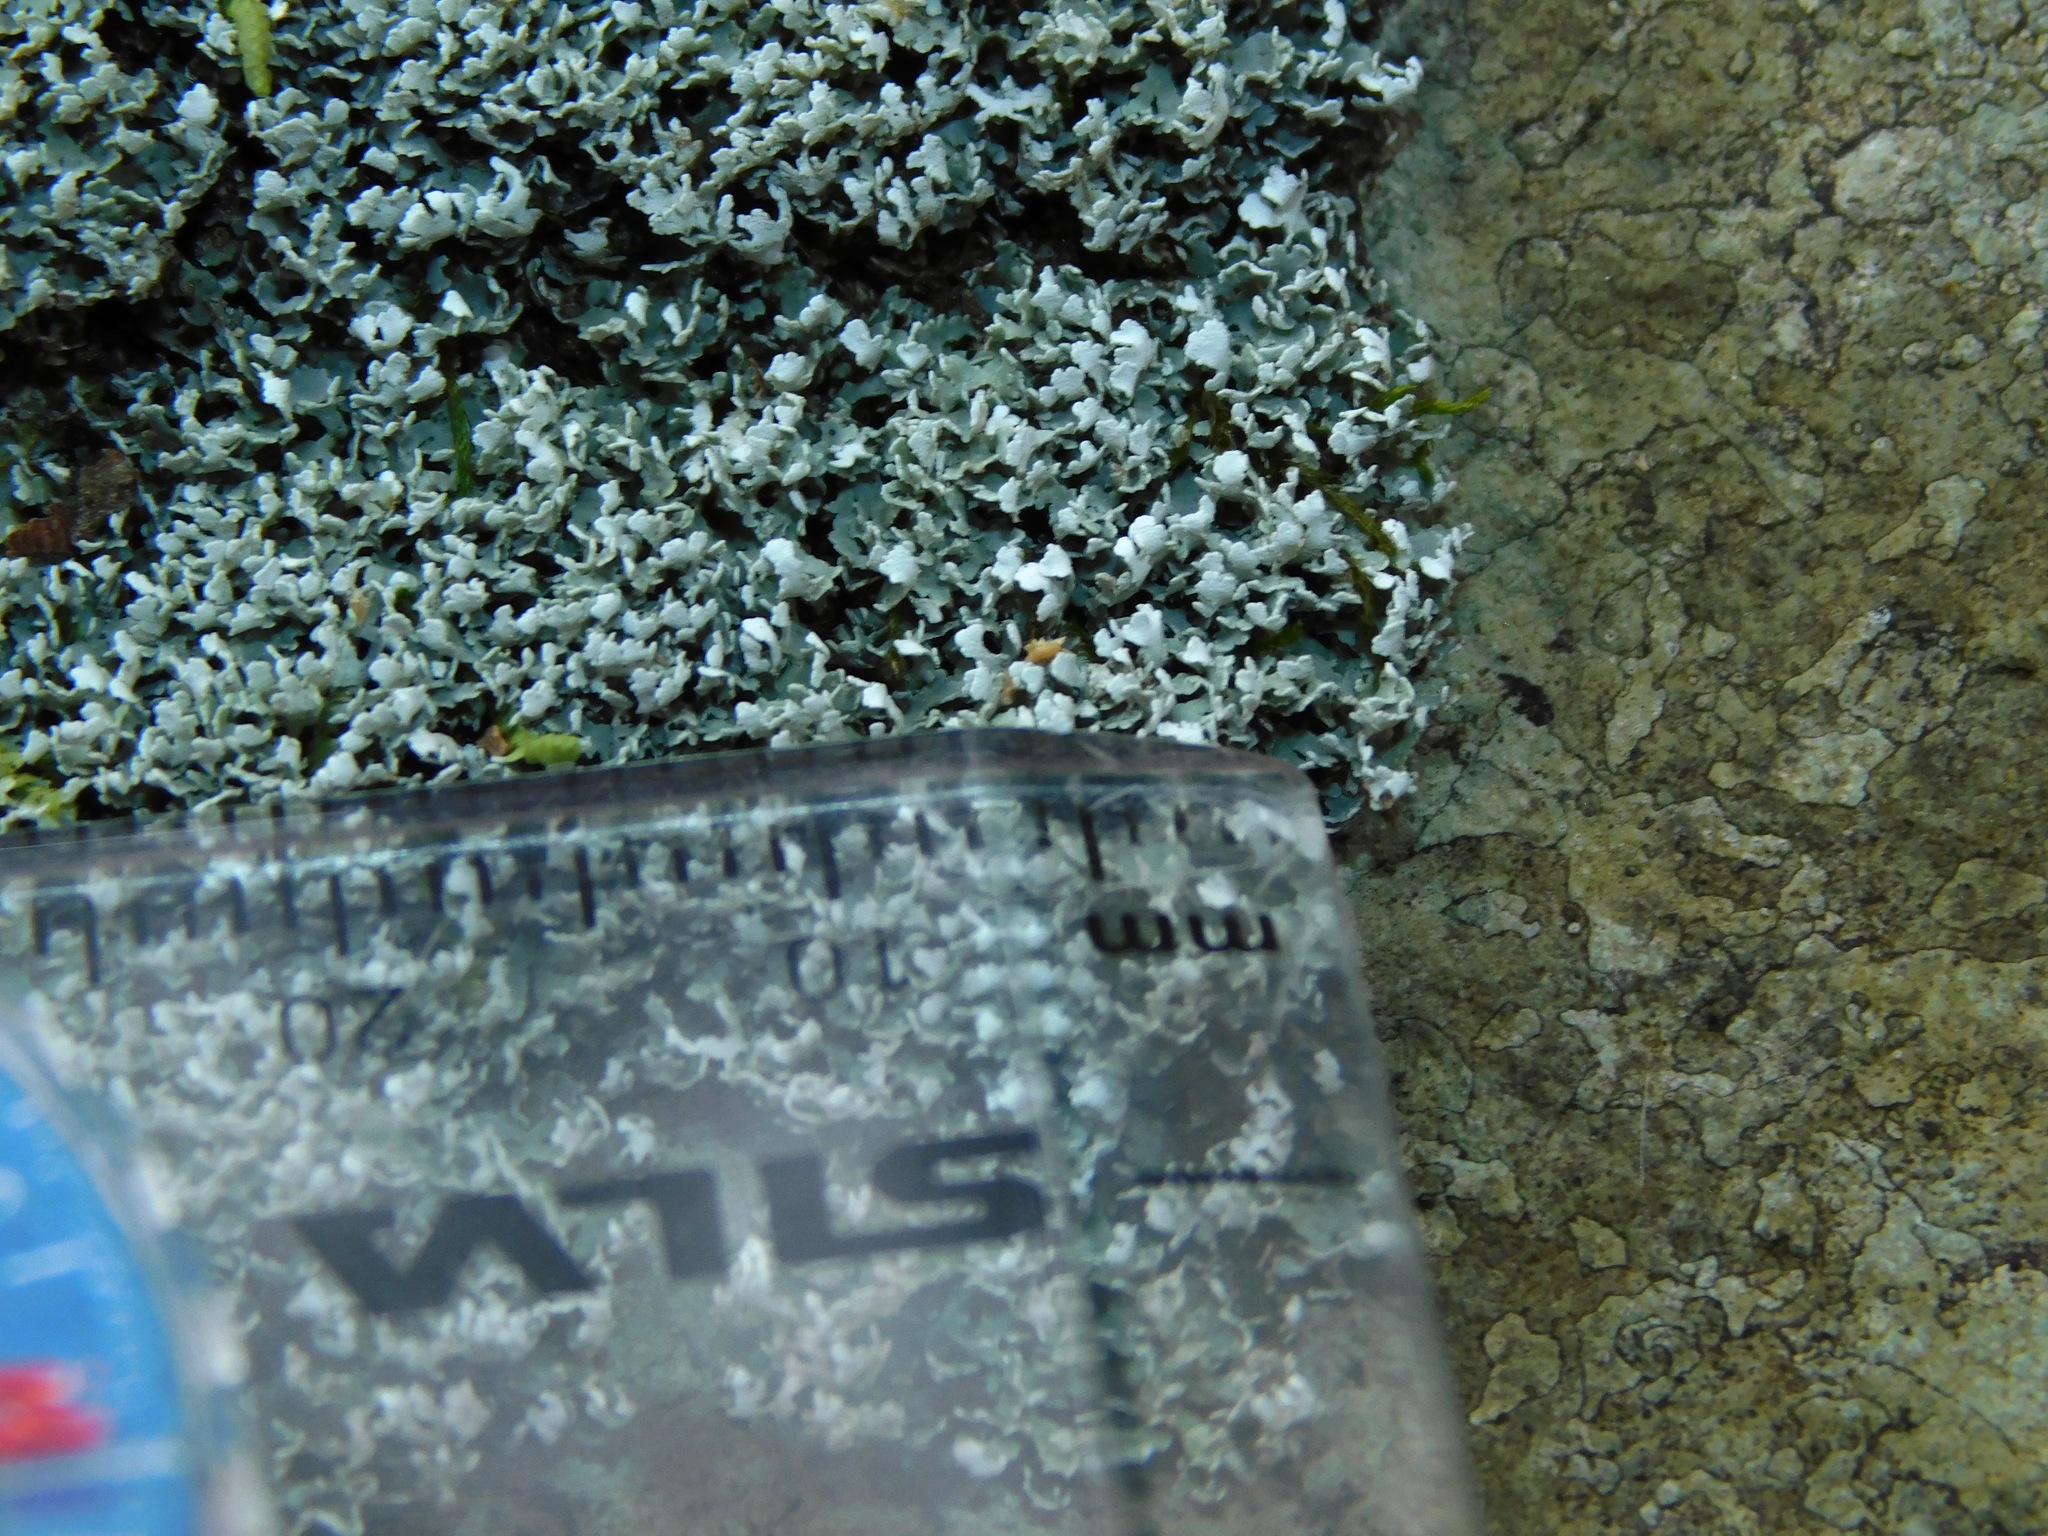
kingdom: Fungi
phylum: Ascomycota
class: Lecanoromycetes
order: Lecanorales
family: Cladoniaceae
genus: Cladonia
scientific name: Cladonia robbinsii
